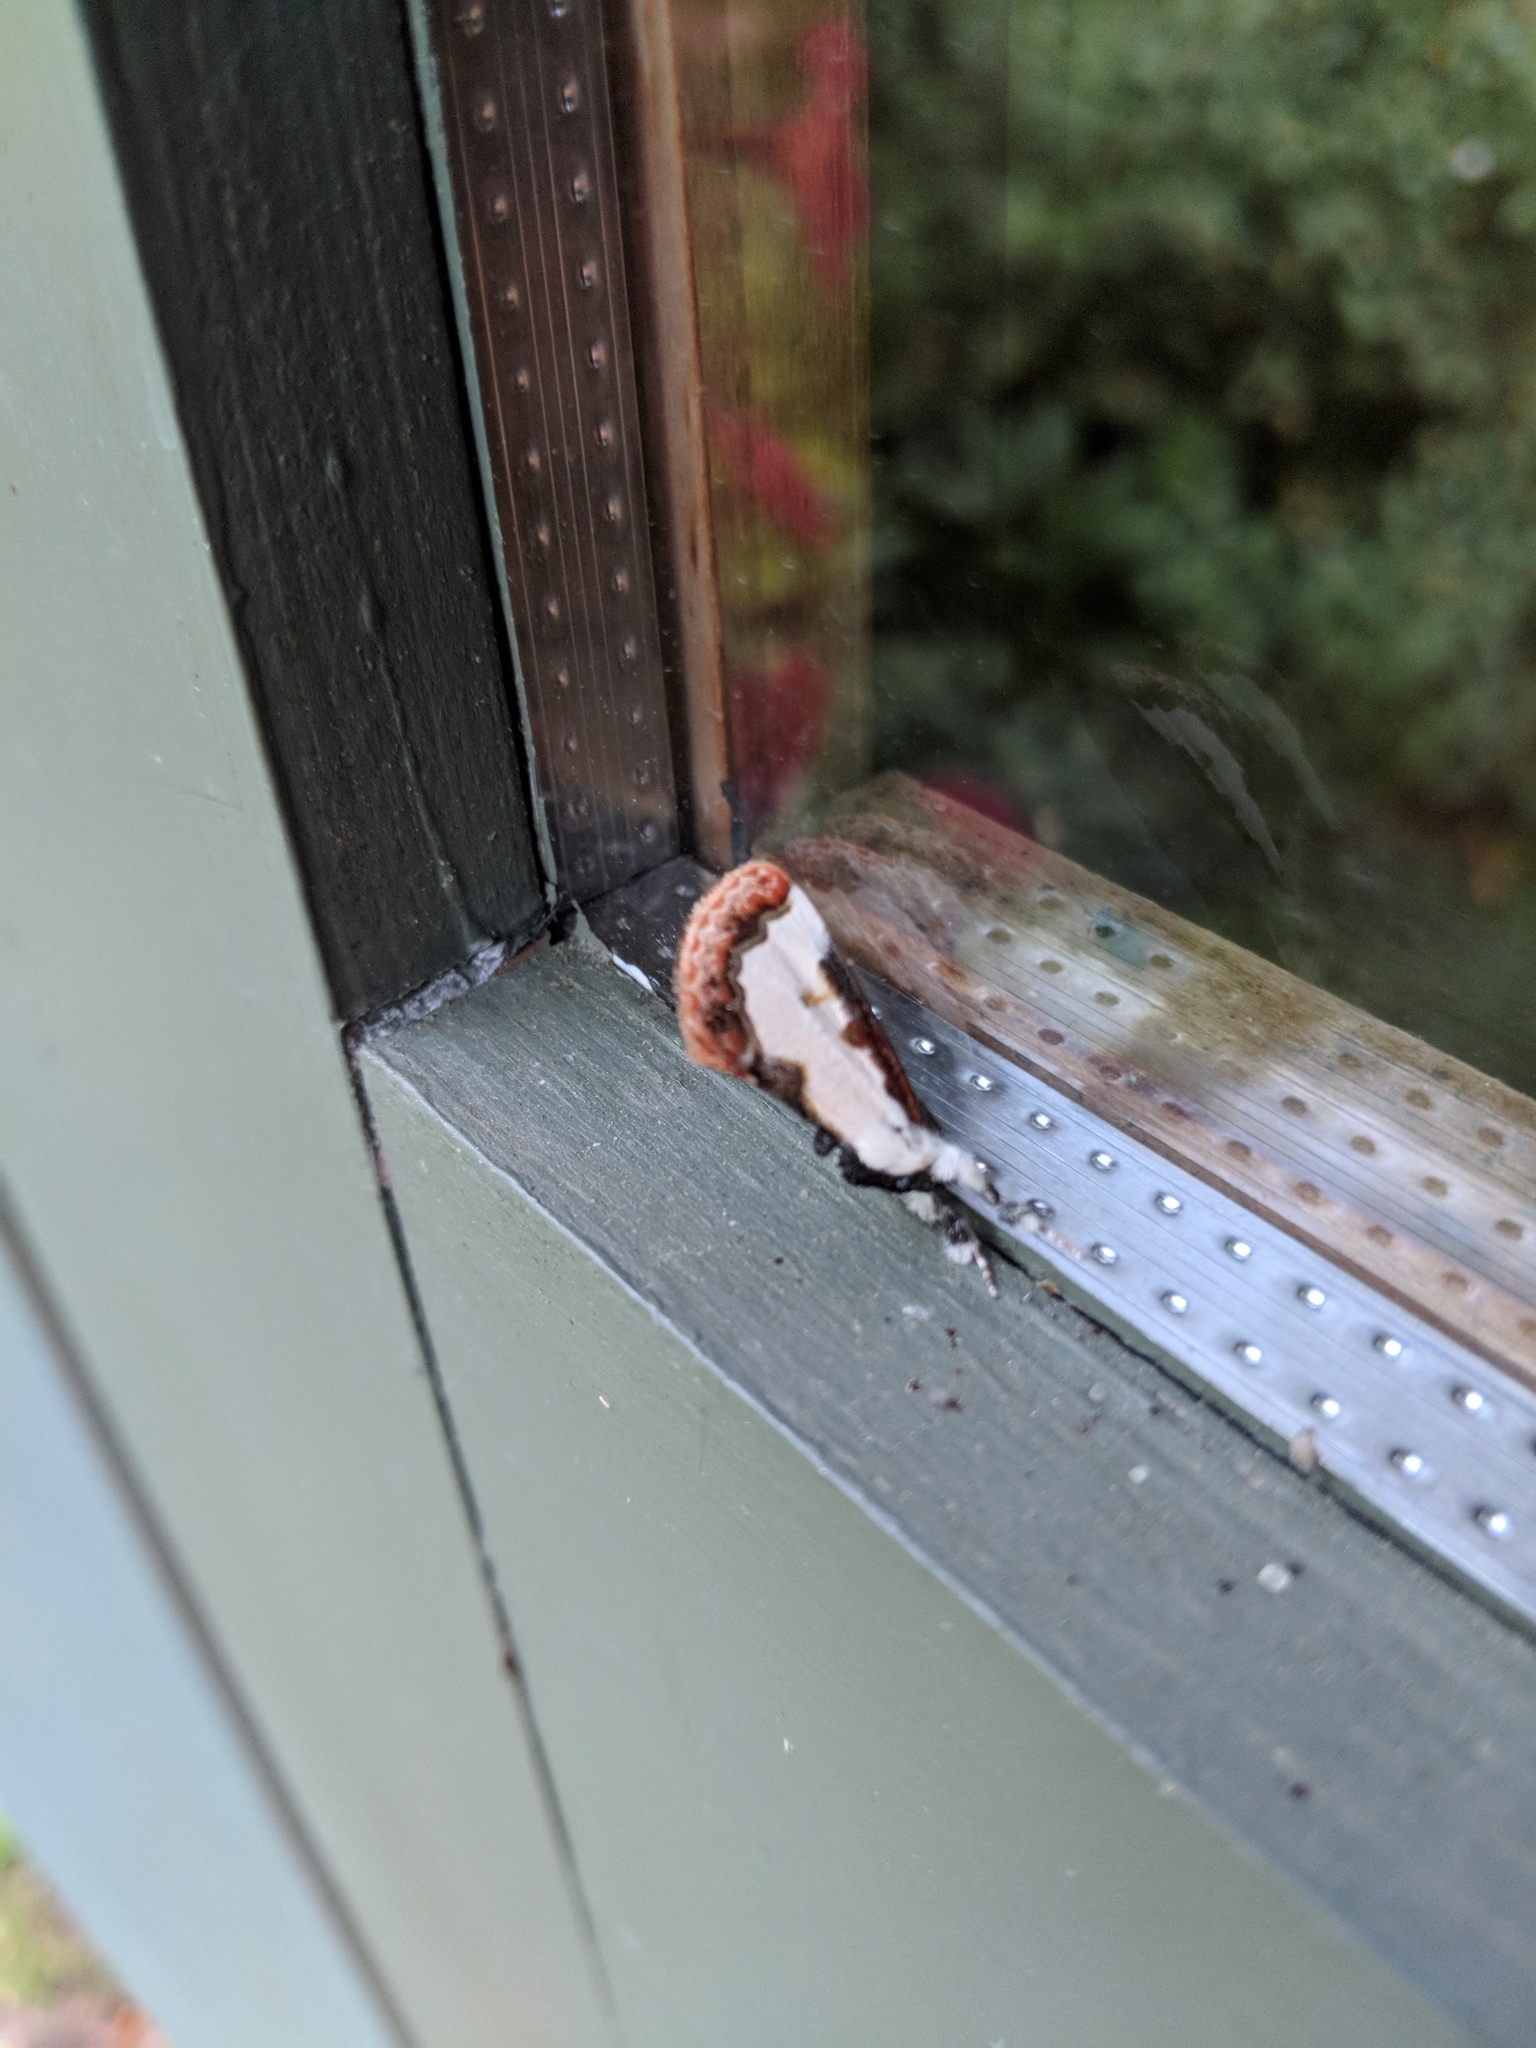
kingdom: Animalia
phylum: Arthropoda
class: Insecta
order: Lepidoptera
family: Noctuidae
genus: Eudryas
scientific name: Eudryas unio
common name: Pearly wood-nymph
